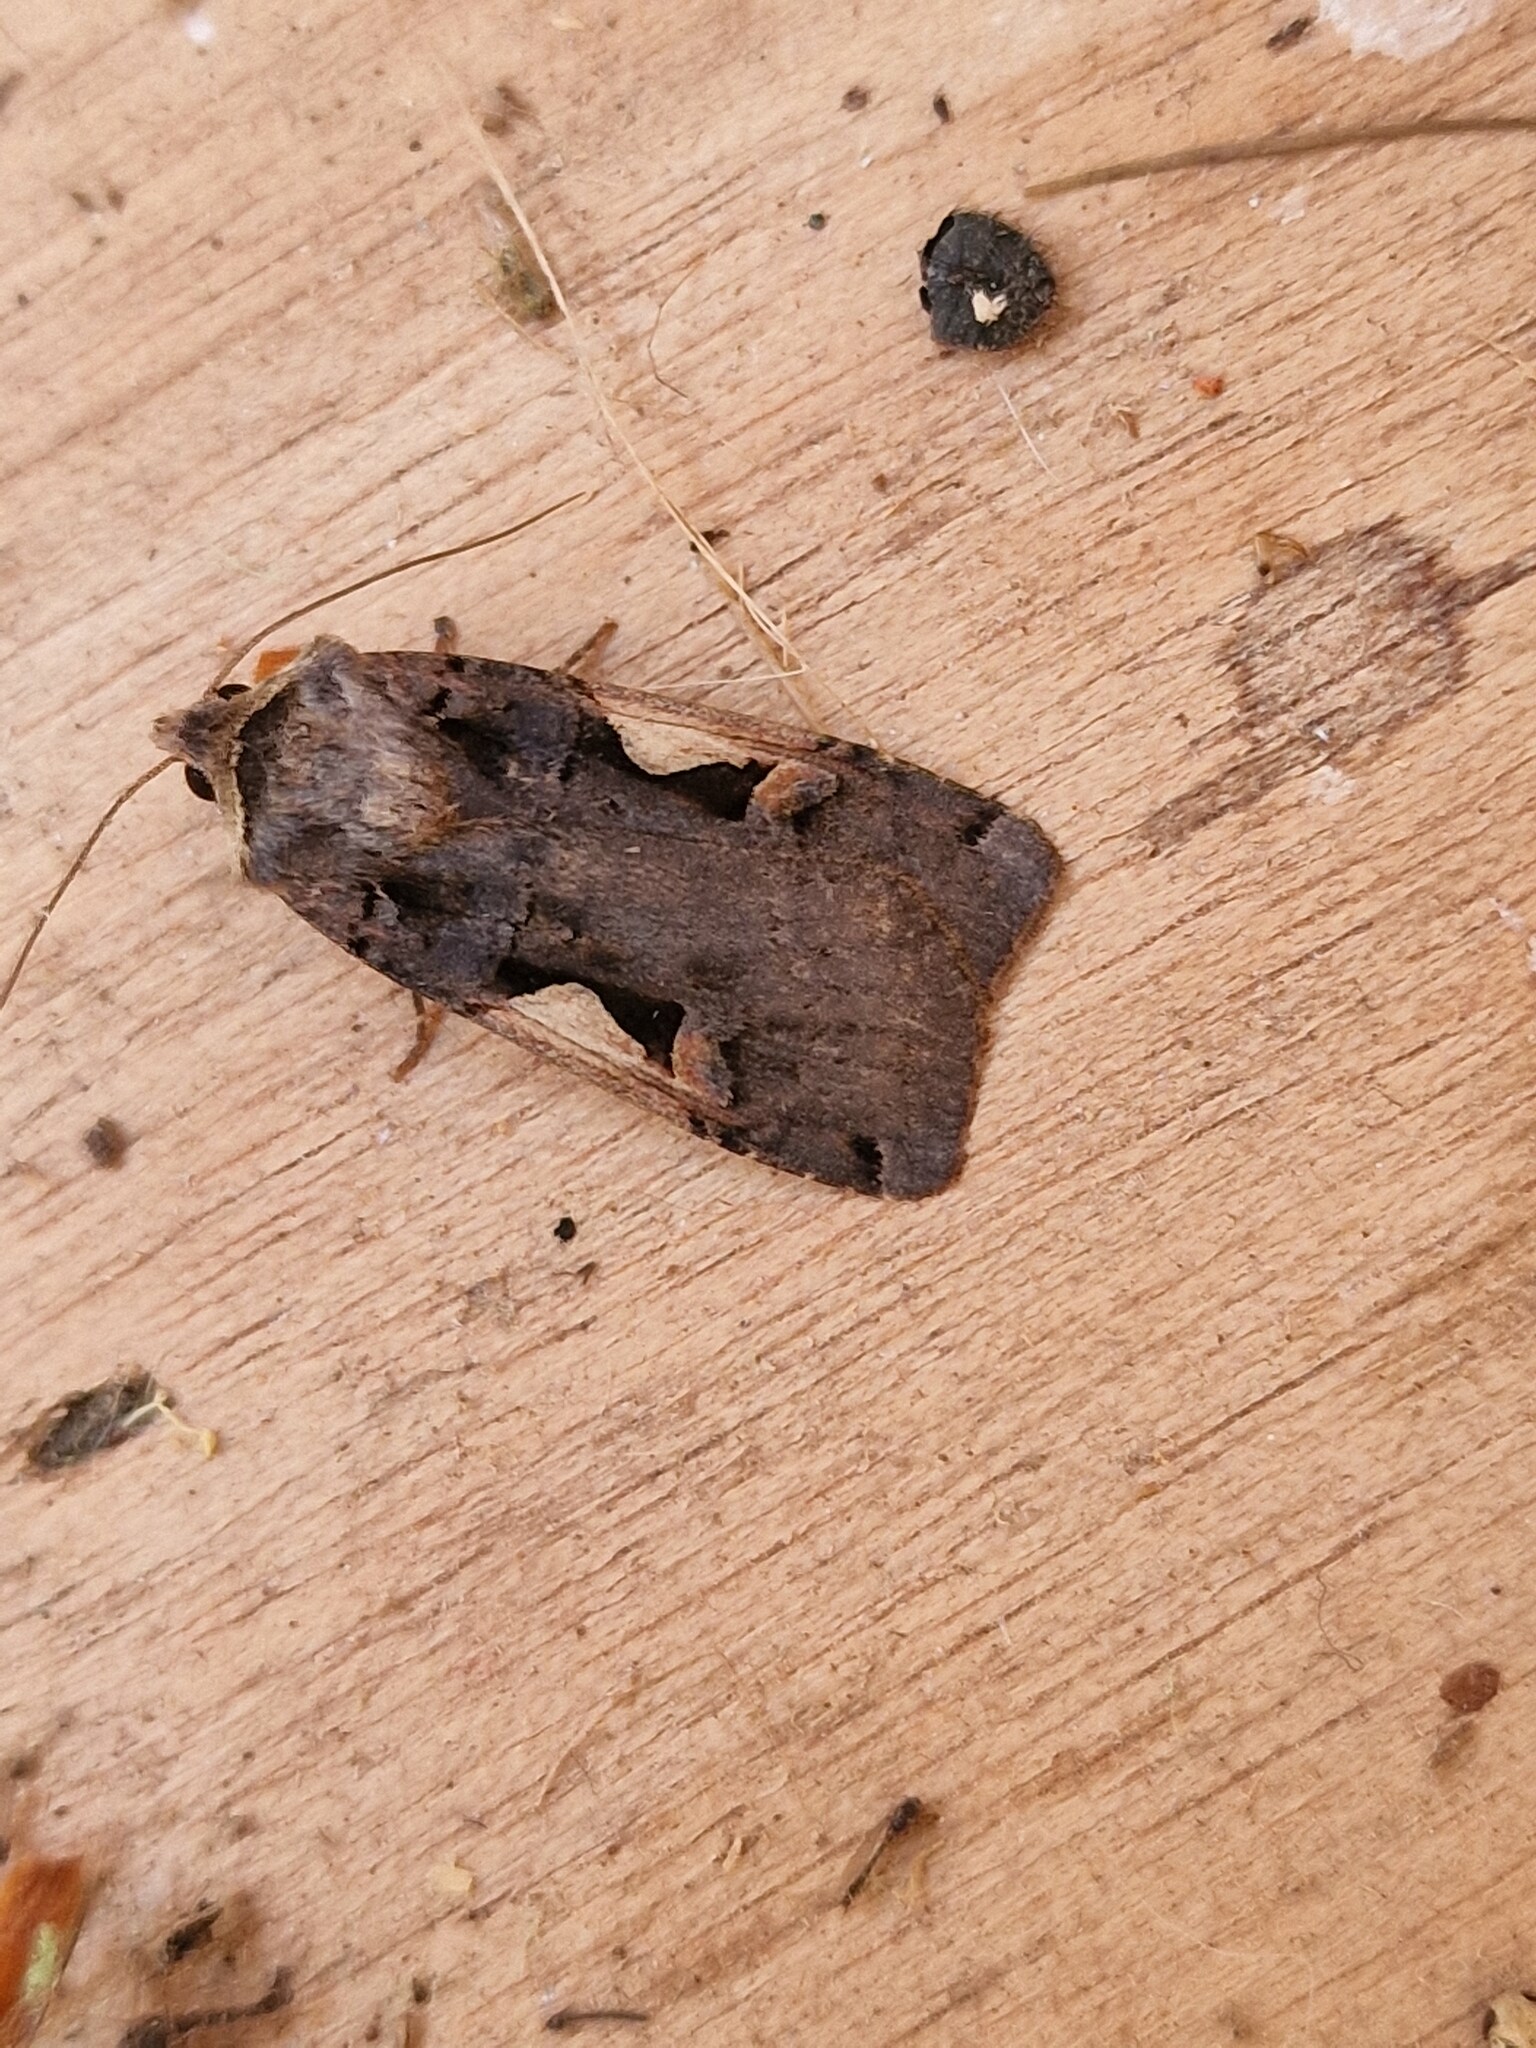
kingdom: Animalia
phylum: Arthropoda
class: Insecta
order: Lepidoptera
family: Noctuidae
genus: Xestia
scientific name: Xestia c-nigrum
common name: Setaceous hebrew character
